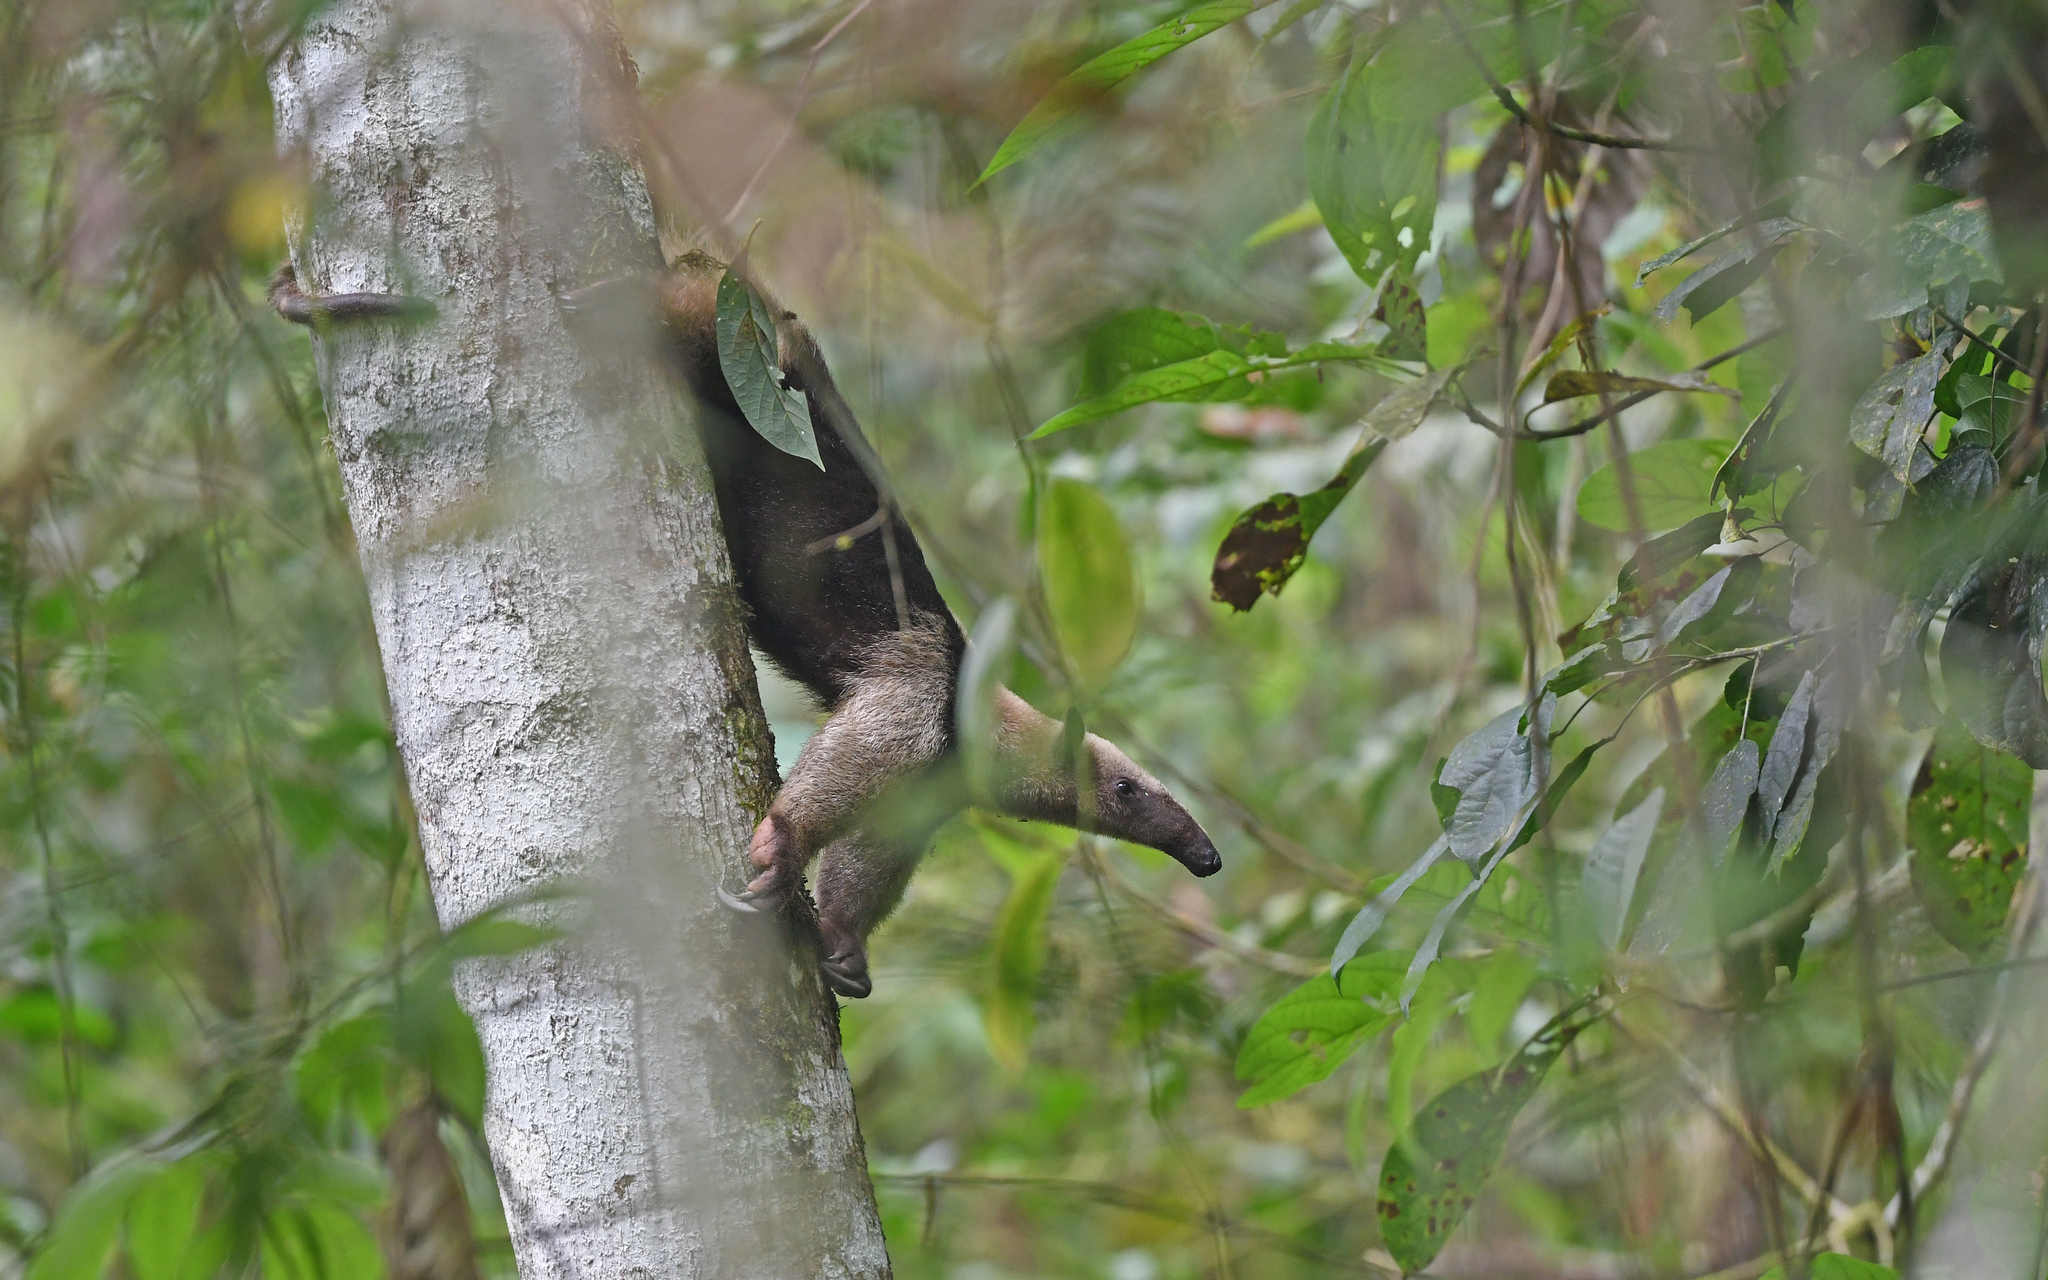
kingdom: Animalia
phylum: Chordata
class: Mammalia
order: Pilosa
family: Myrmecophagidae
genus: Tamandua
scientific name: Tamandua mexicana
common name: Northern tamandua
